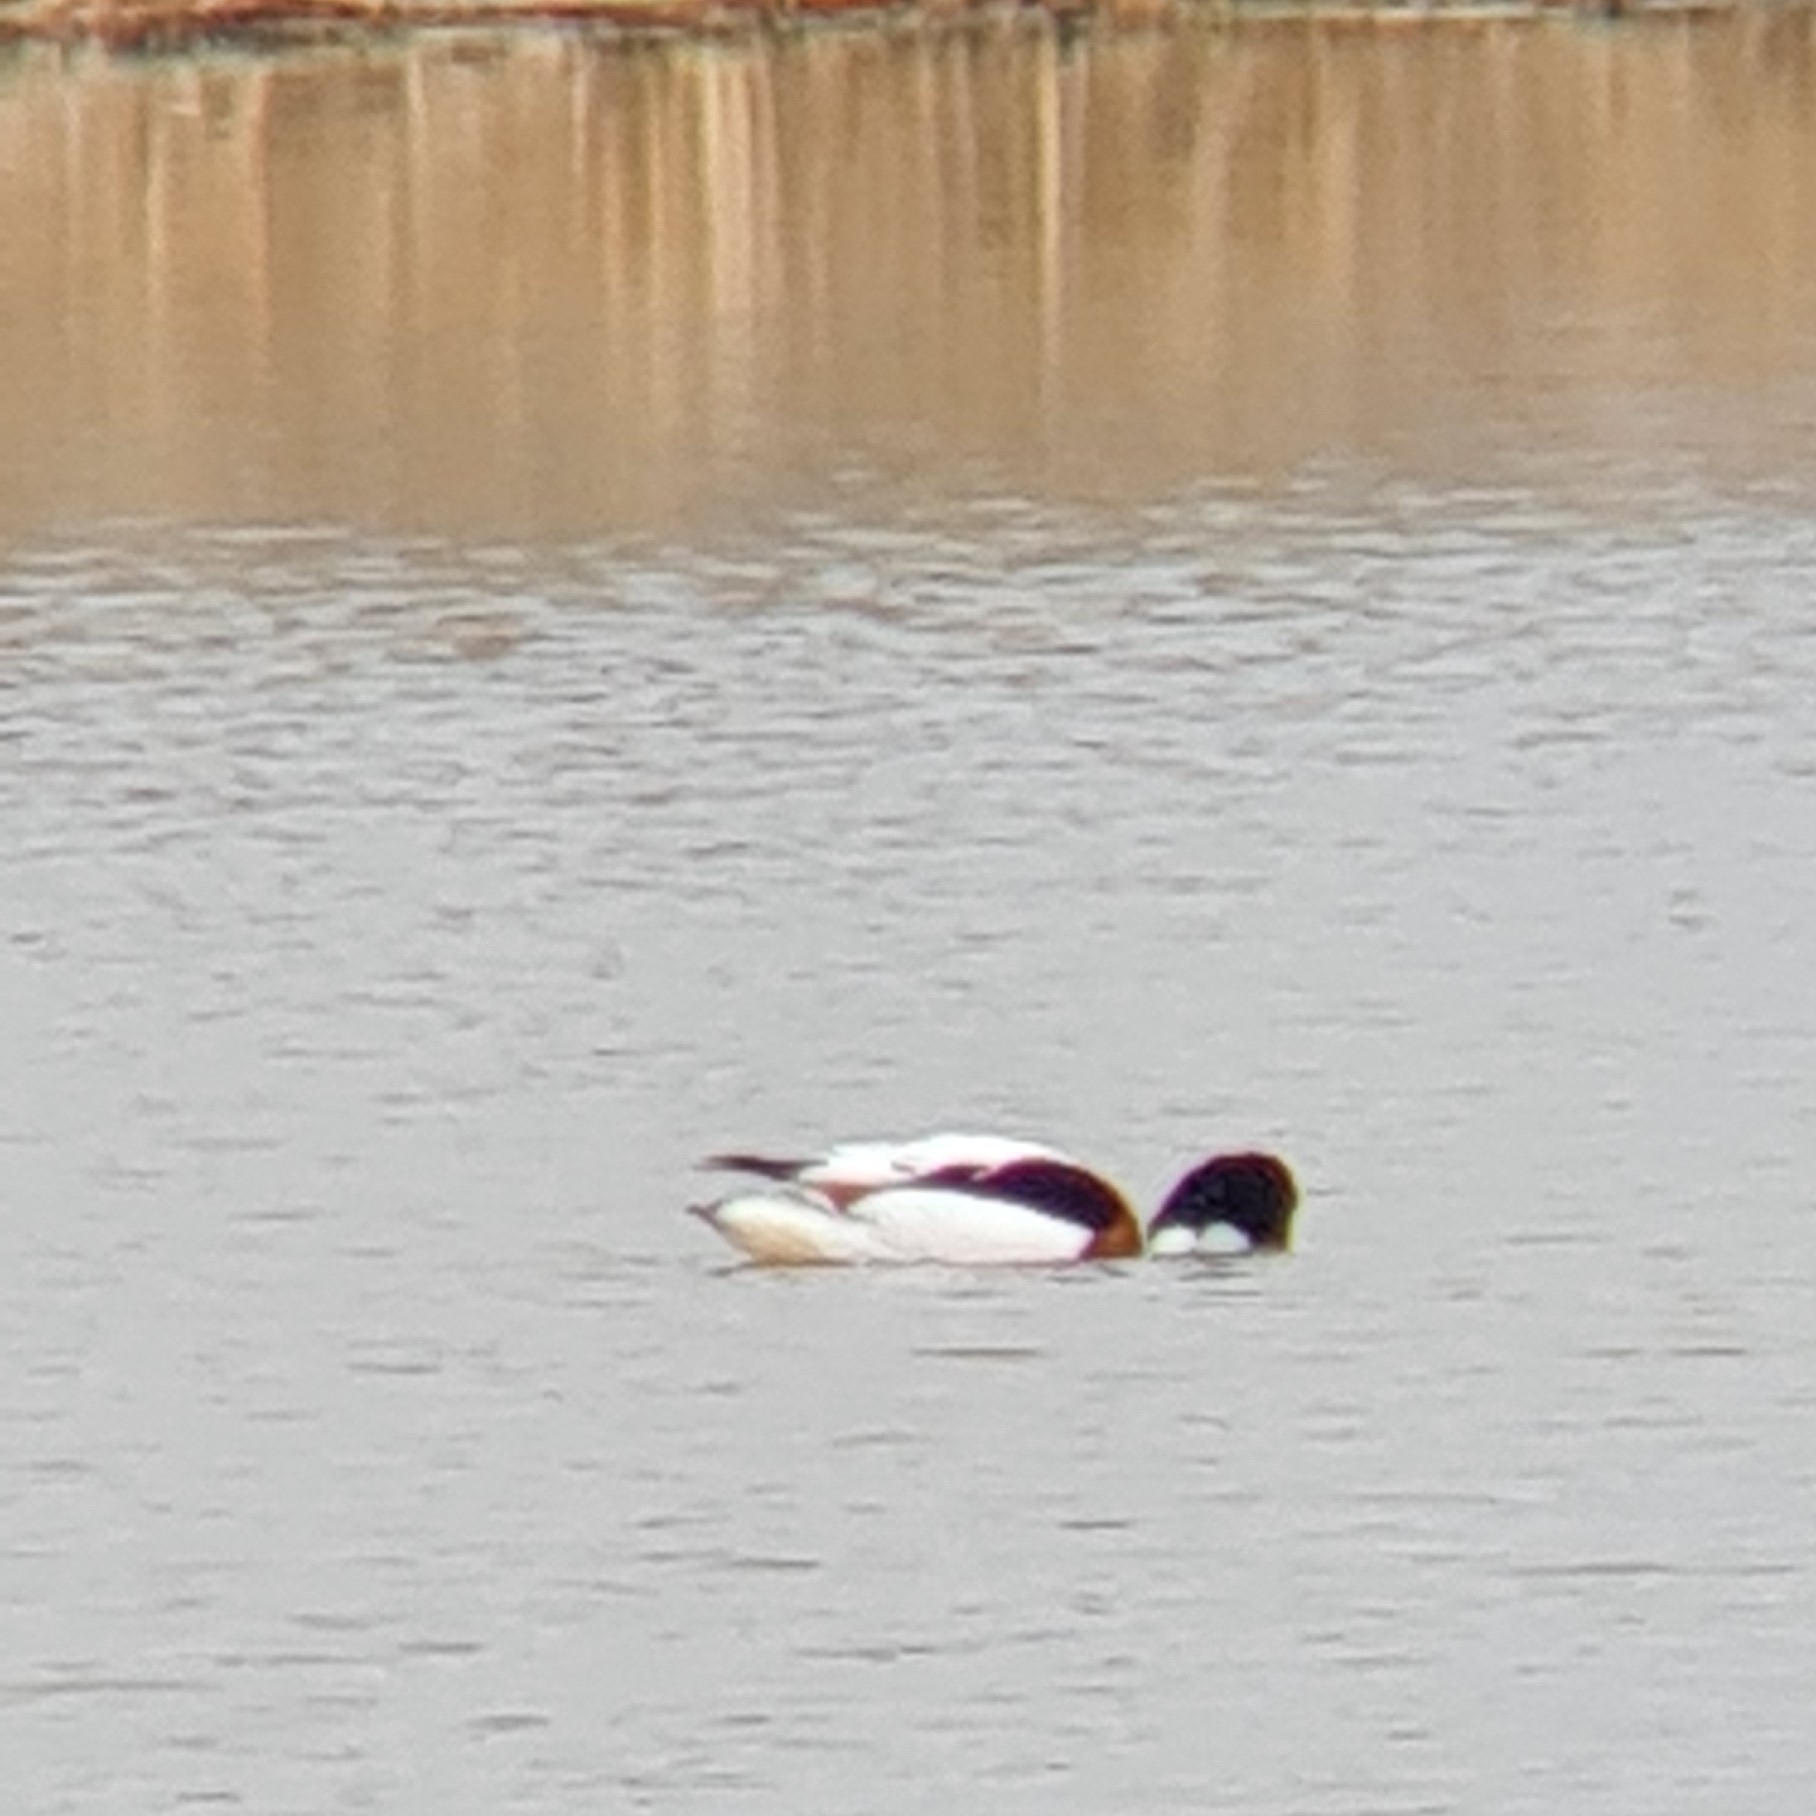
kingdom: Animalia
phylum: Chordata
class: Aves
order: Anseriformes
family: Anatidae
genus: Tadorna
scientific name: Tadorna tadorna
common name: Common shelduck
